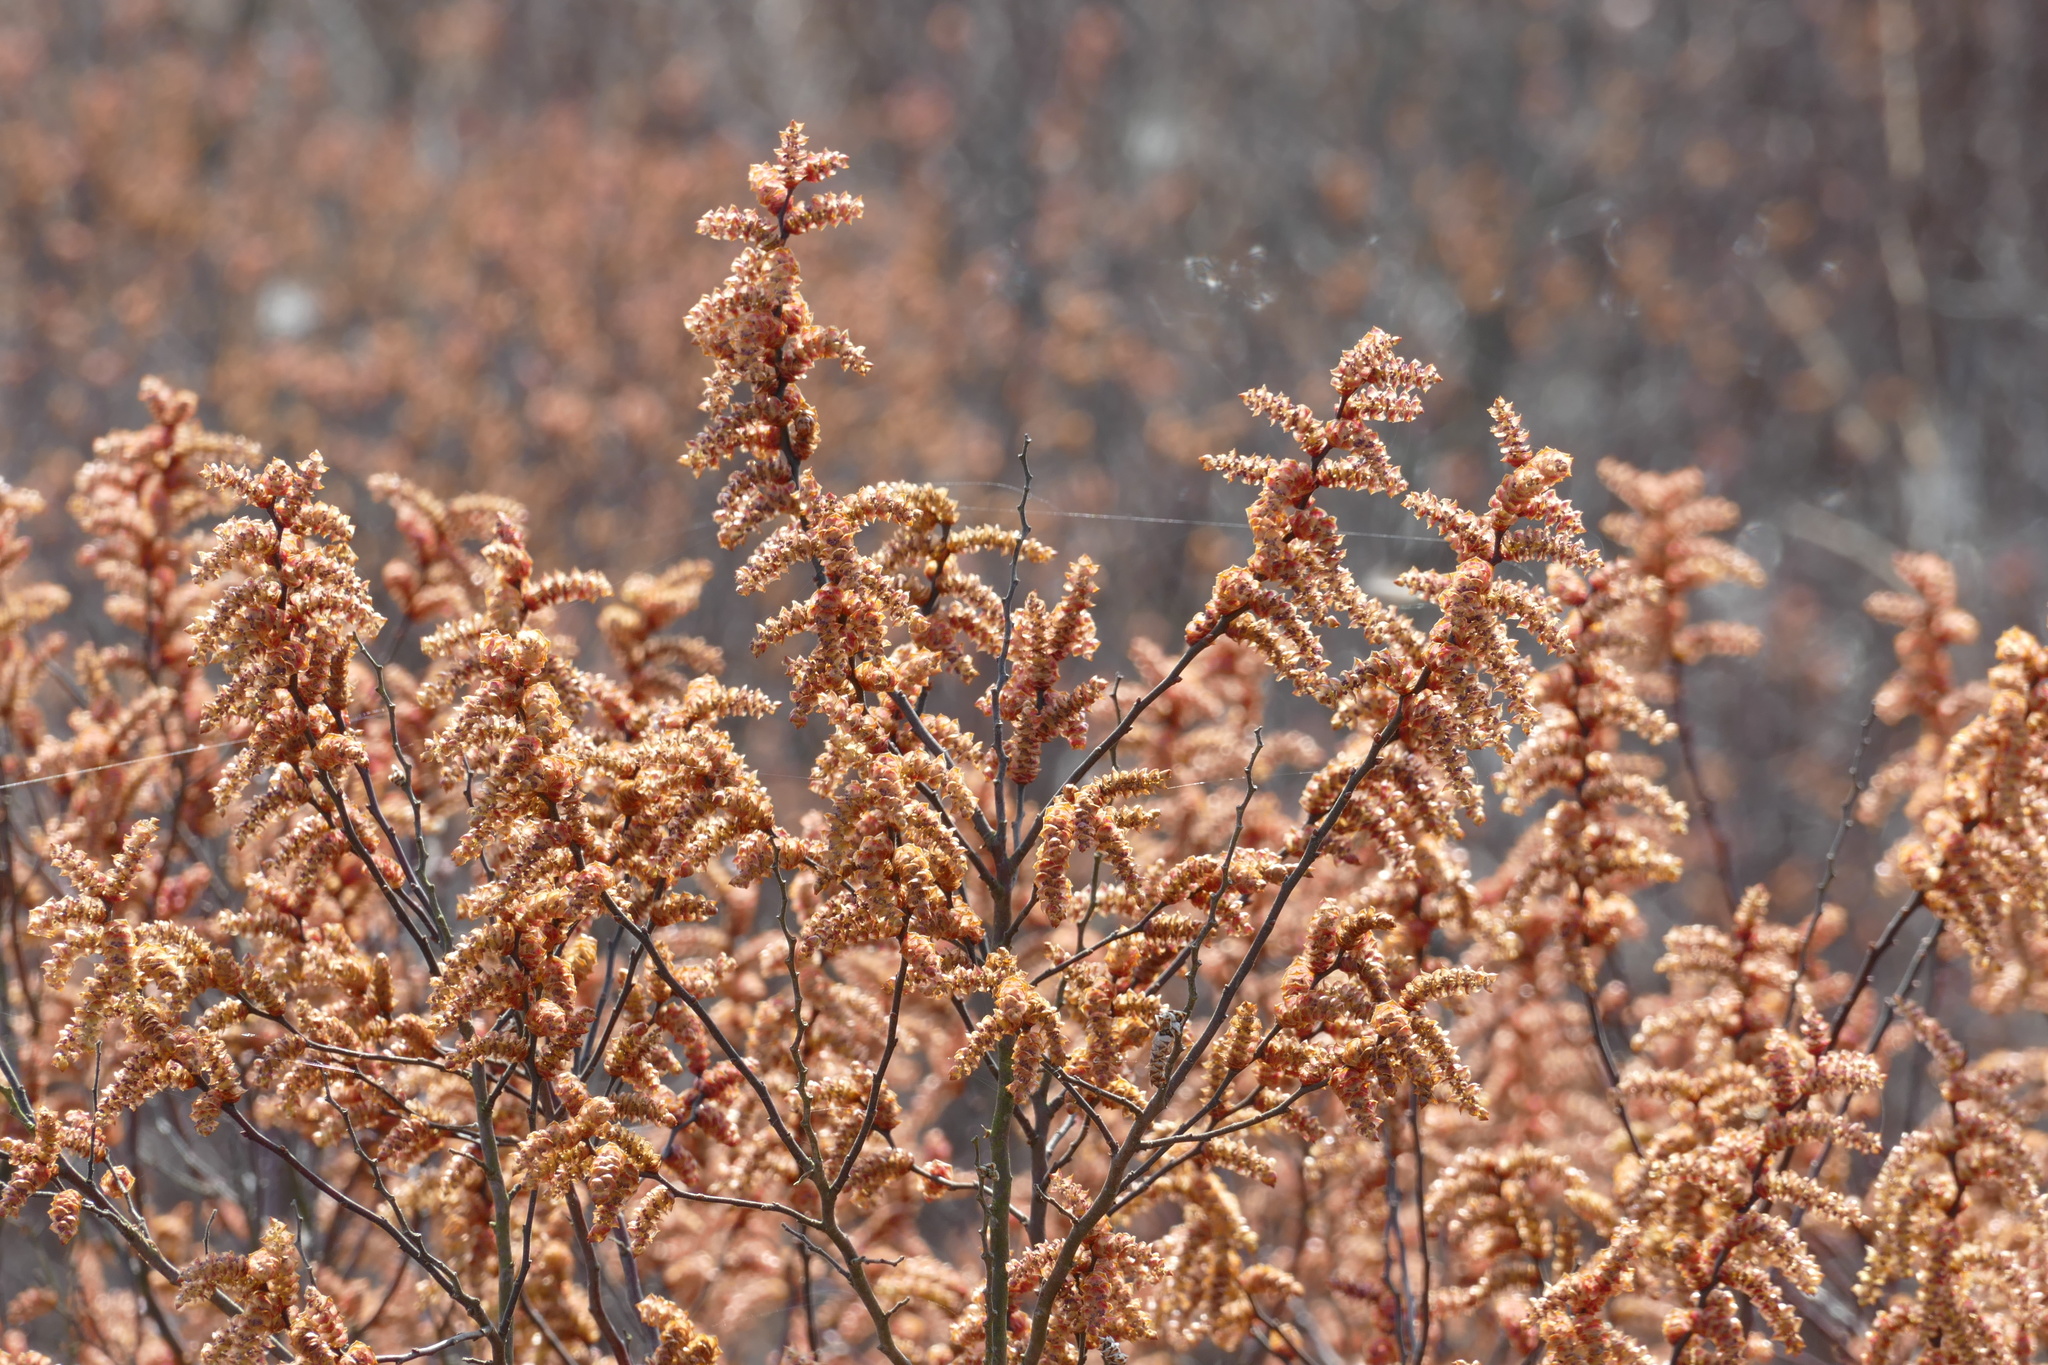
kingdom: Plantae
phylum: Tracheophyta
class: Magnoliopsida
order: Fagales
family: Myricaceae
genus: Myrica
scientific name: Myrica gale
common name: Sweet gale
